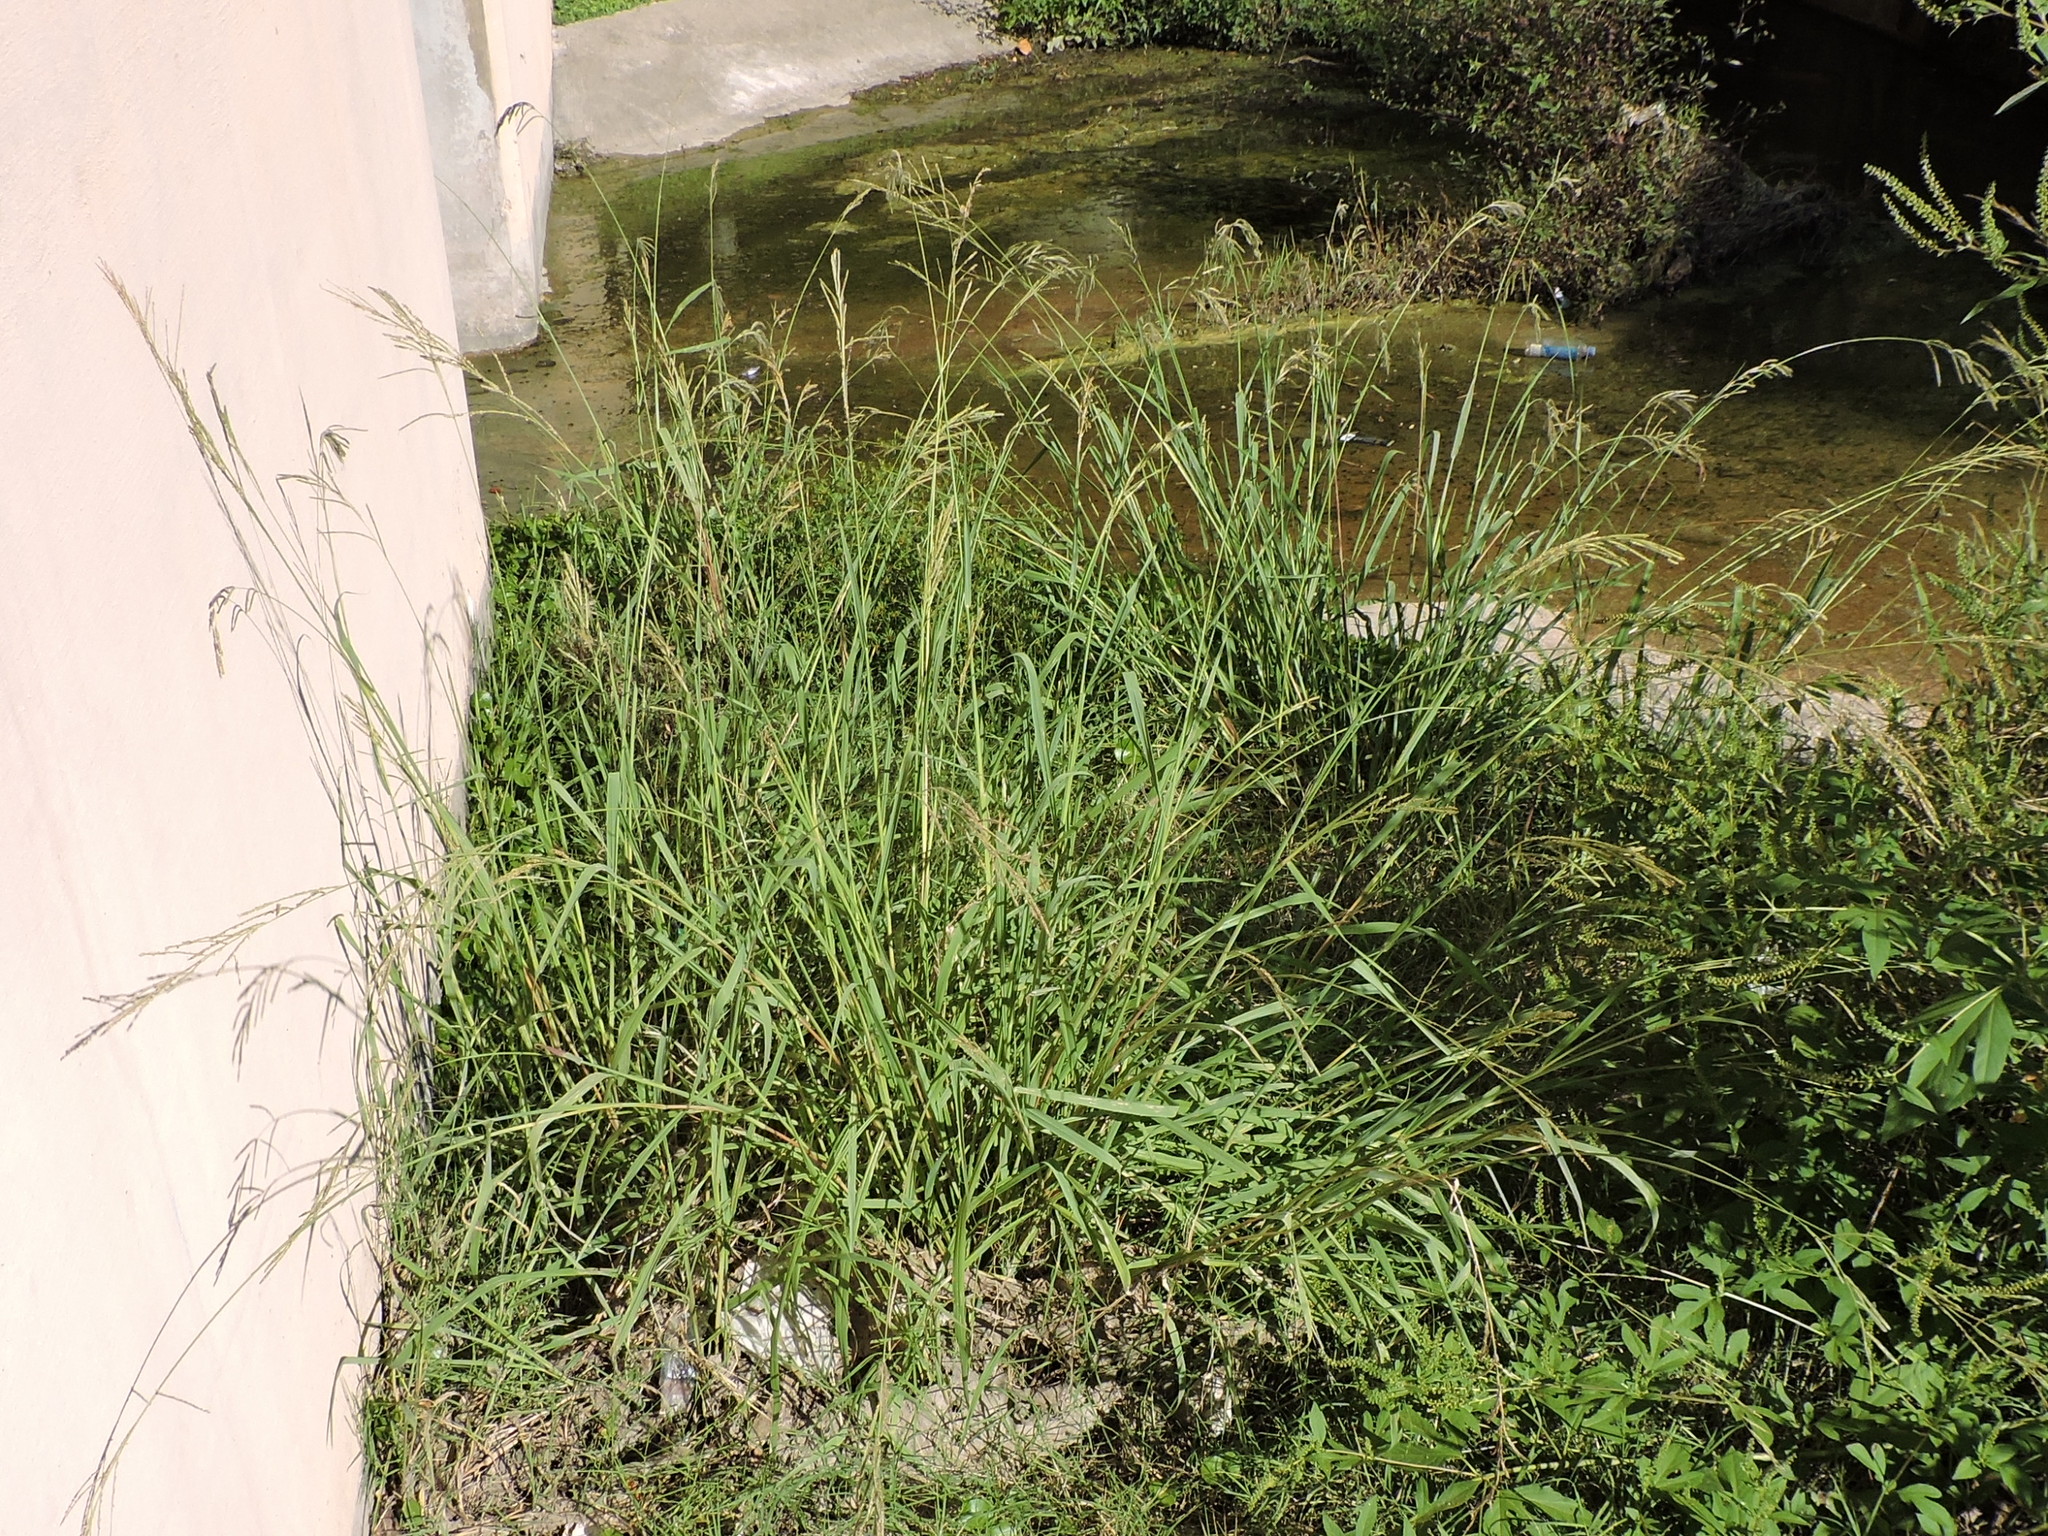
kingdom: Plantae
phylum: Tracheophyta
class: Liliopsida
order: Poales
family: Poaceae
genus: Paspalum
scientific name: Paspalum urvillei
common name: Vasey's grass
